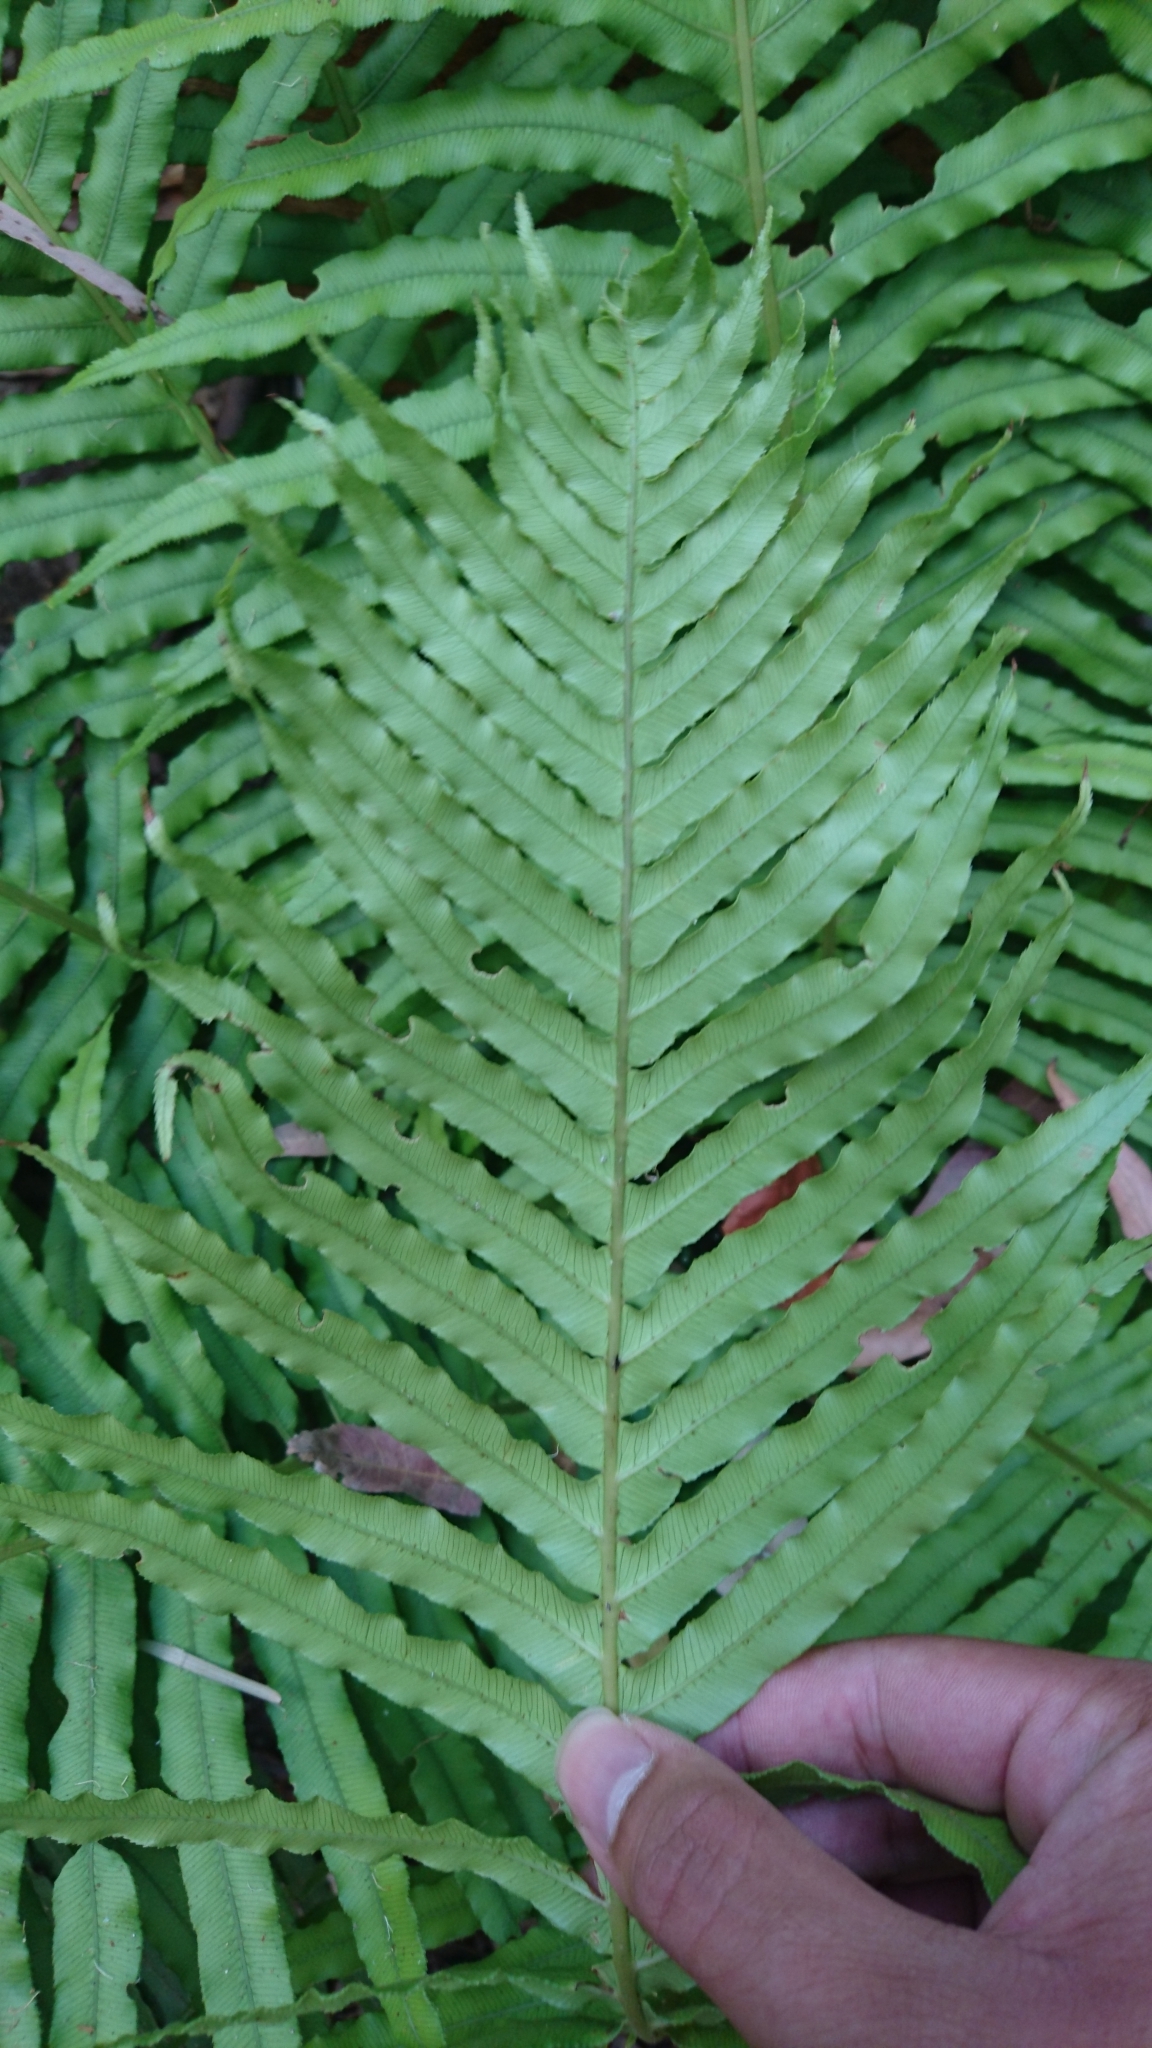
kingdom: Plantae
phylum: Tracheophyta
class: Polypodiopsida
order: Polypodiales
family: Blechnaceae
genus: Oceaniopteris
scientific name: Oceaniopteris cartilaginea
